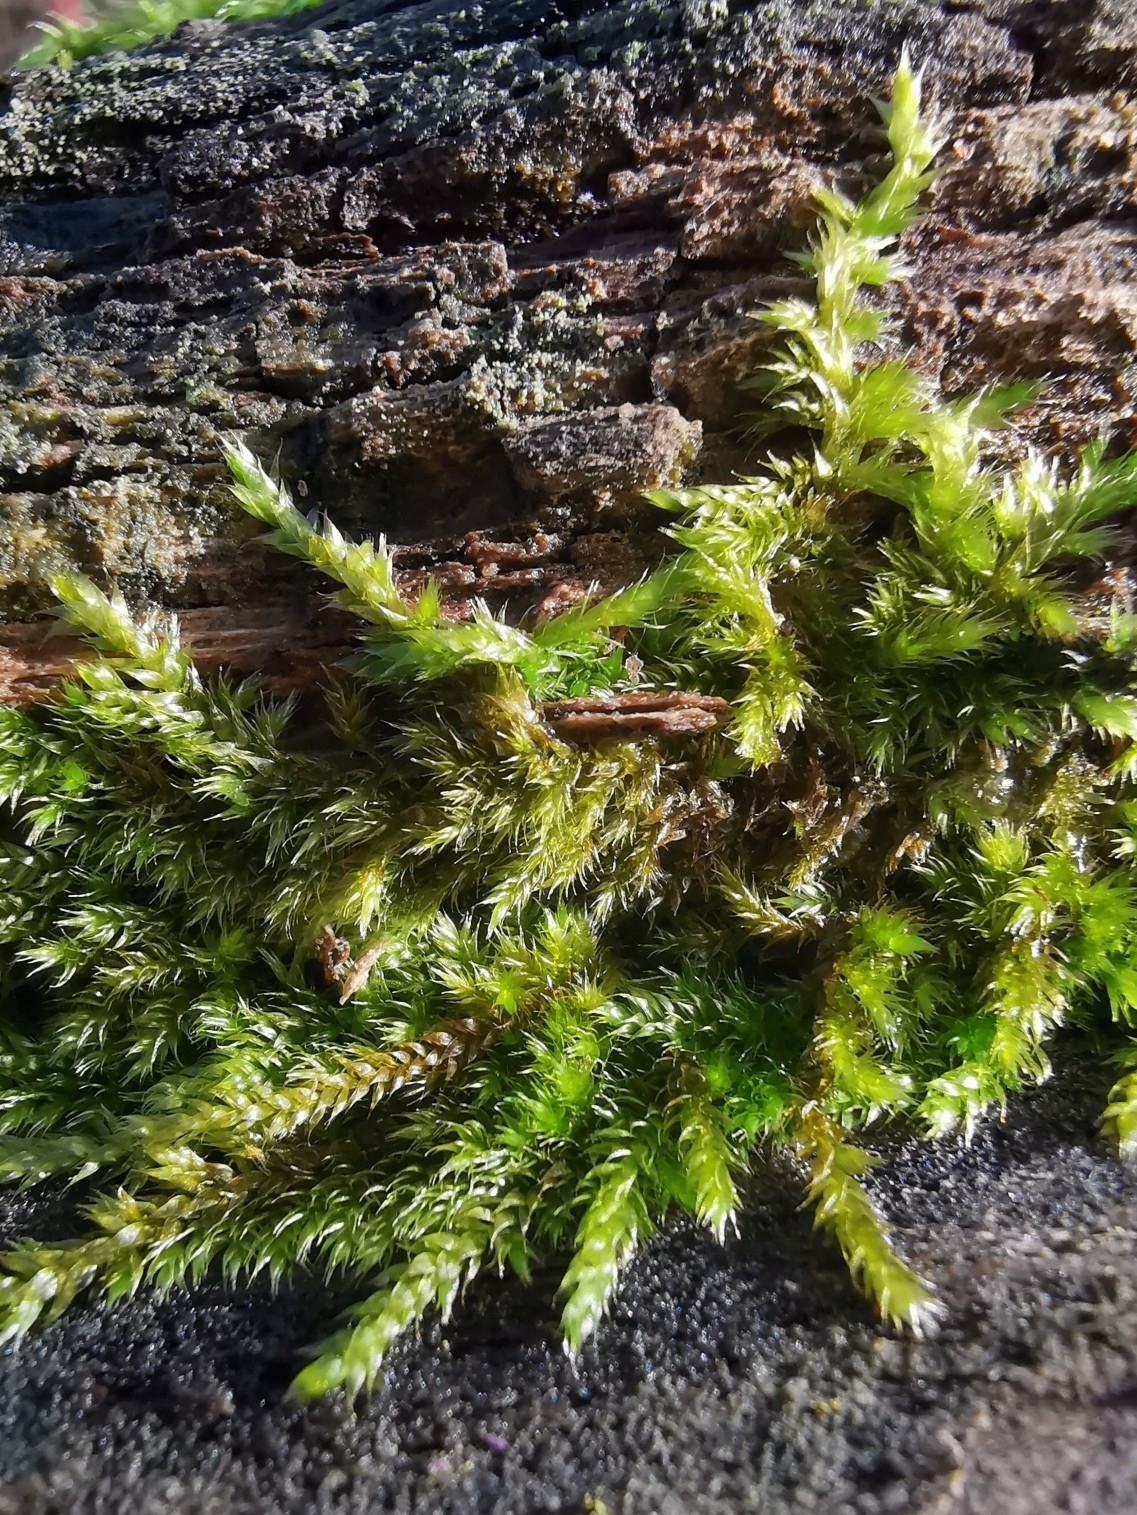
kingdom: Plantae
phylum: Bryophyta
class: Bryopsida
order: Hypnales
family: Hypnaceae
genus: Hypnum
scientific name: Hypnum cupressiforme
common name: Cypress-leaved plait-moss
